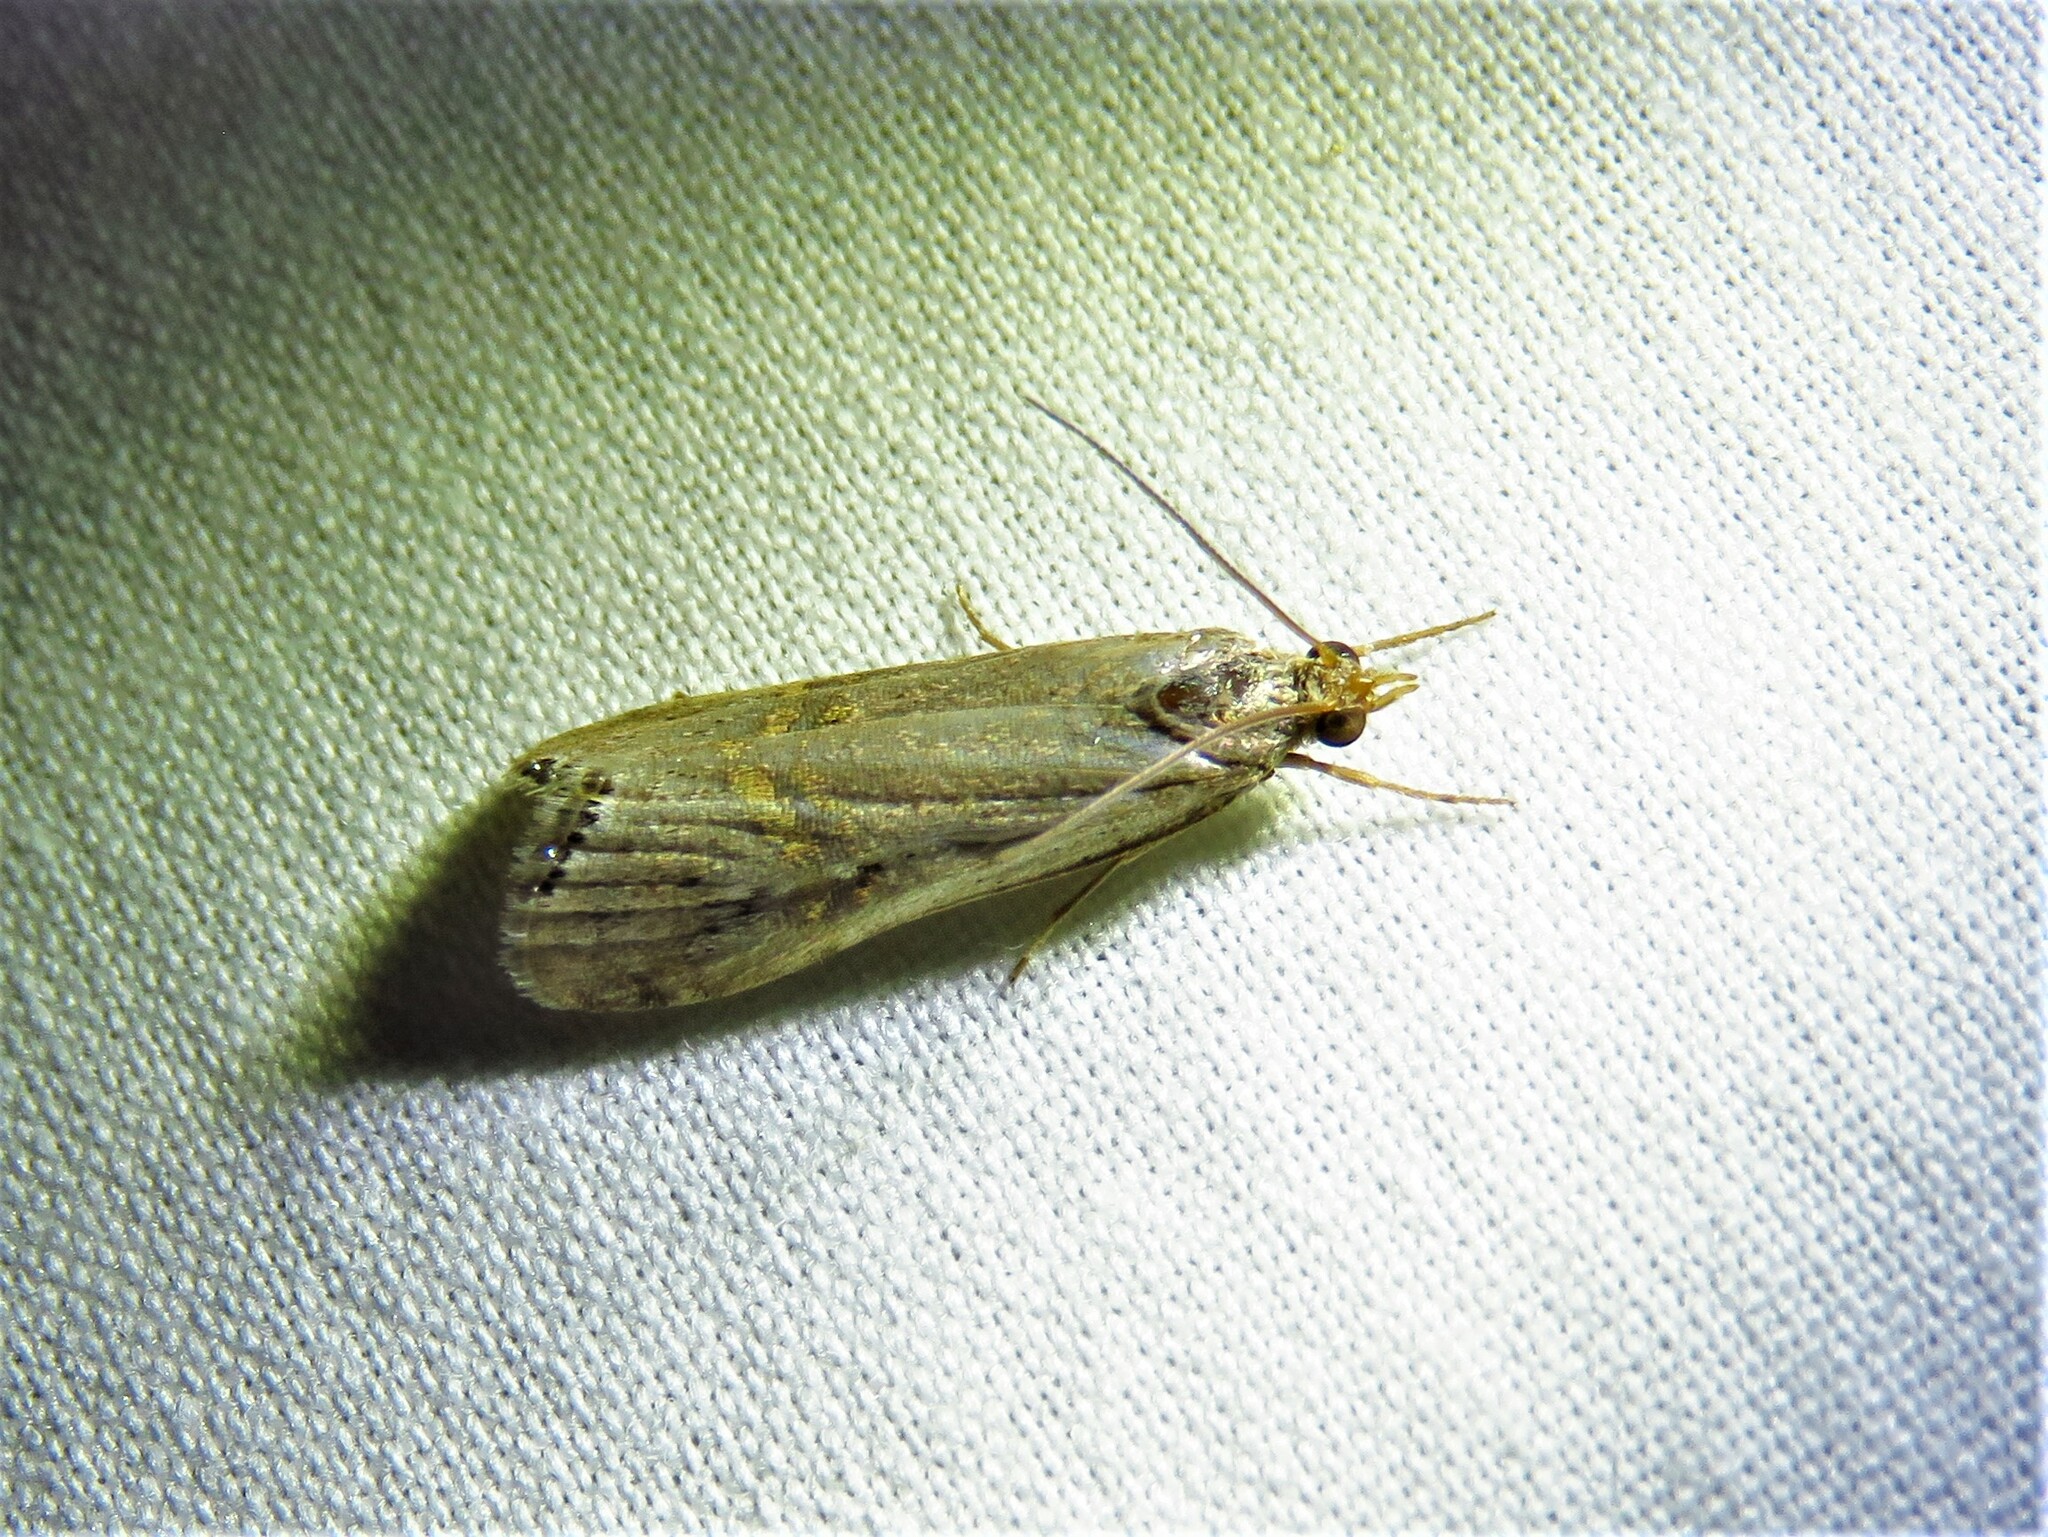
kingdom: Animalia
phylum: Arthropoda
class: Insecta
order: Lepidoptera
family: Crambidae
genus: Euchromius
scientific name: Euchromius ocellea
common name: Necklace veneer moth
